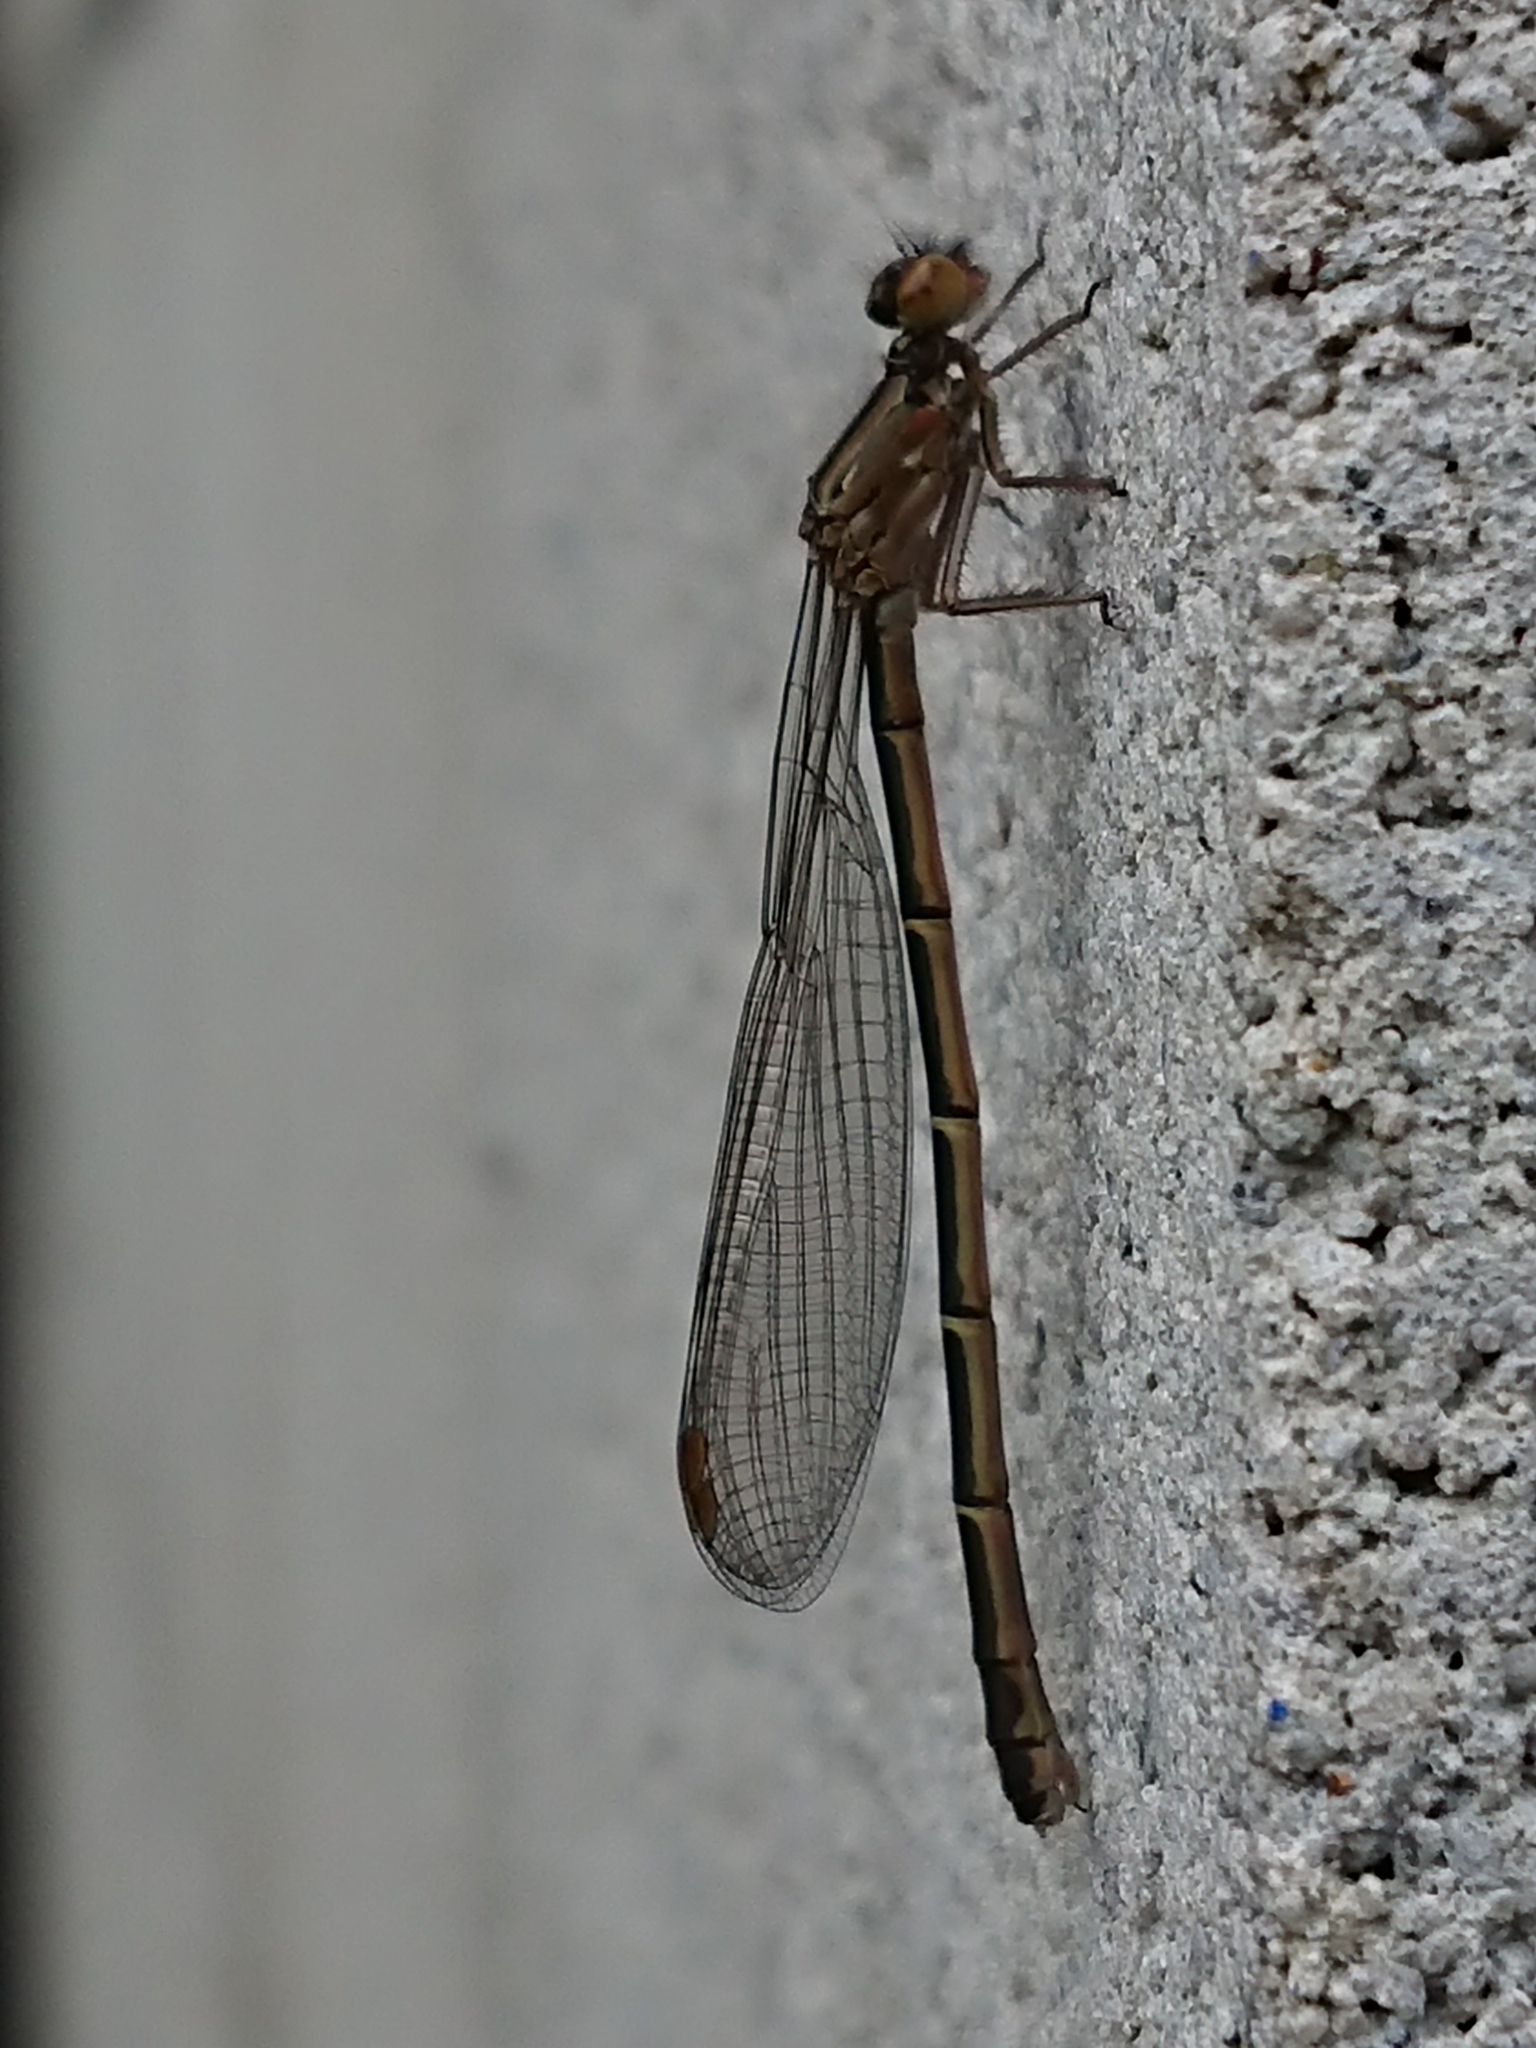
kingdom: Animalia
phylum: Arthropoda
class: Insecta
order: Odonata
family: Coenagrionidae
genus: Xanthocnemis
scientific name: Xanthocnemis zealandica
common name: Common redcoat damselfly
